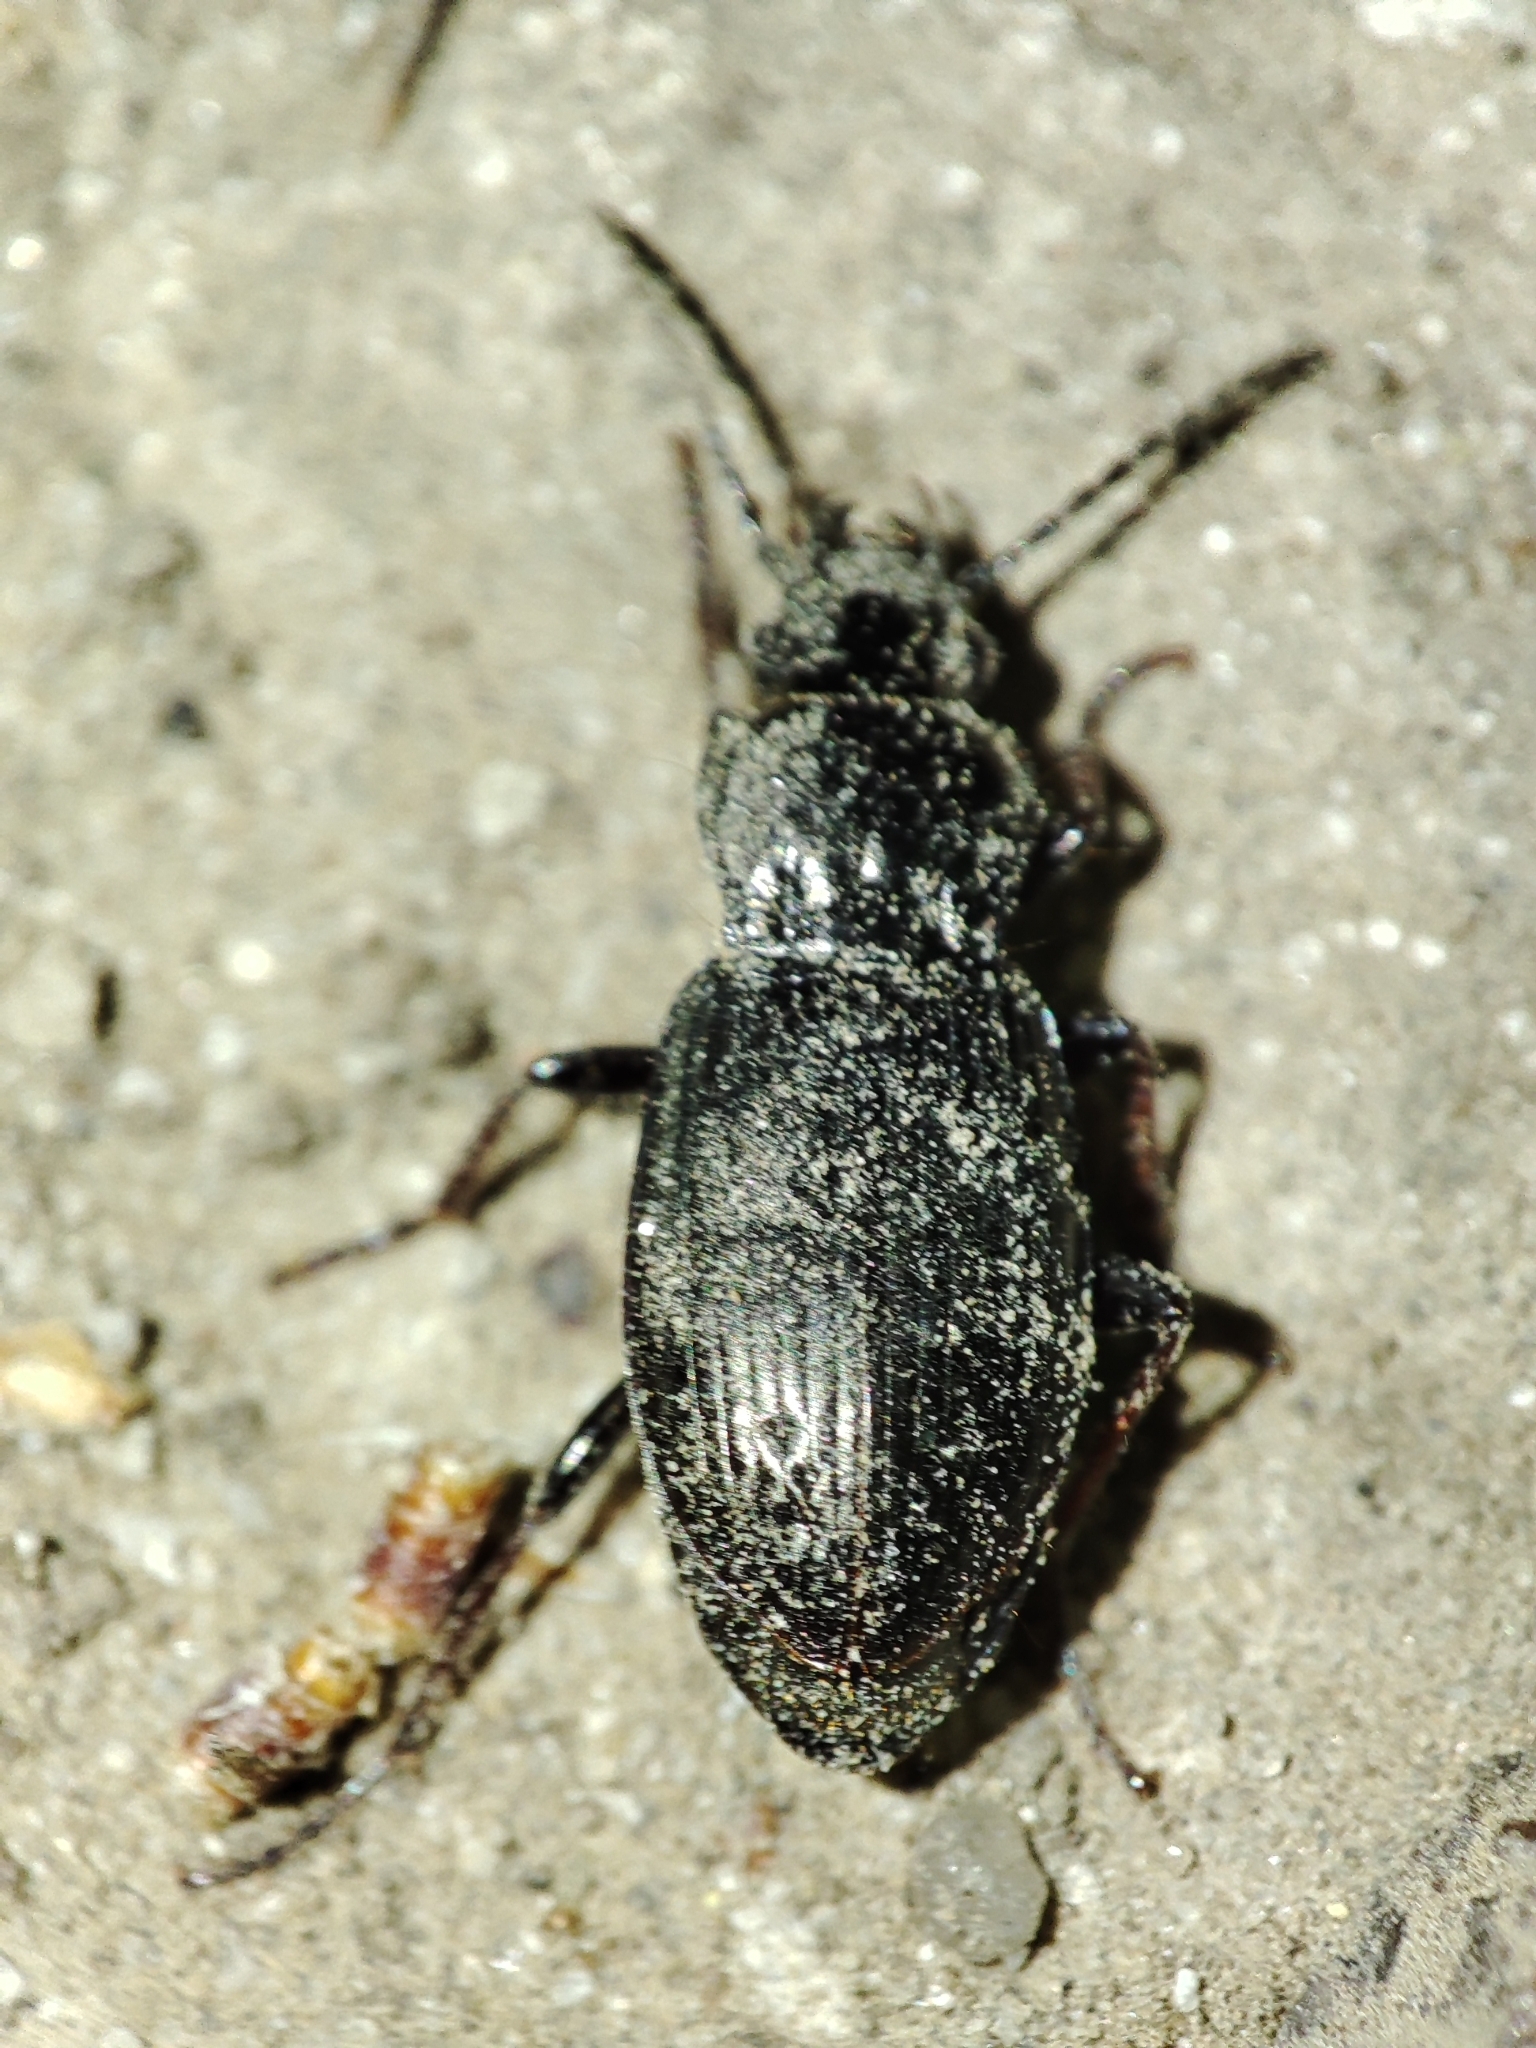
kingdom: Animalia
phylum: Arthropoda
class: Insecta
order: Coleoptera
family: Carabidae
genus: Pterostichus
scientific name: Pterostichus oblongopunctatus
